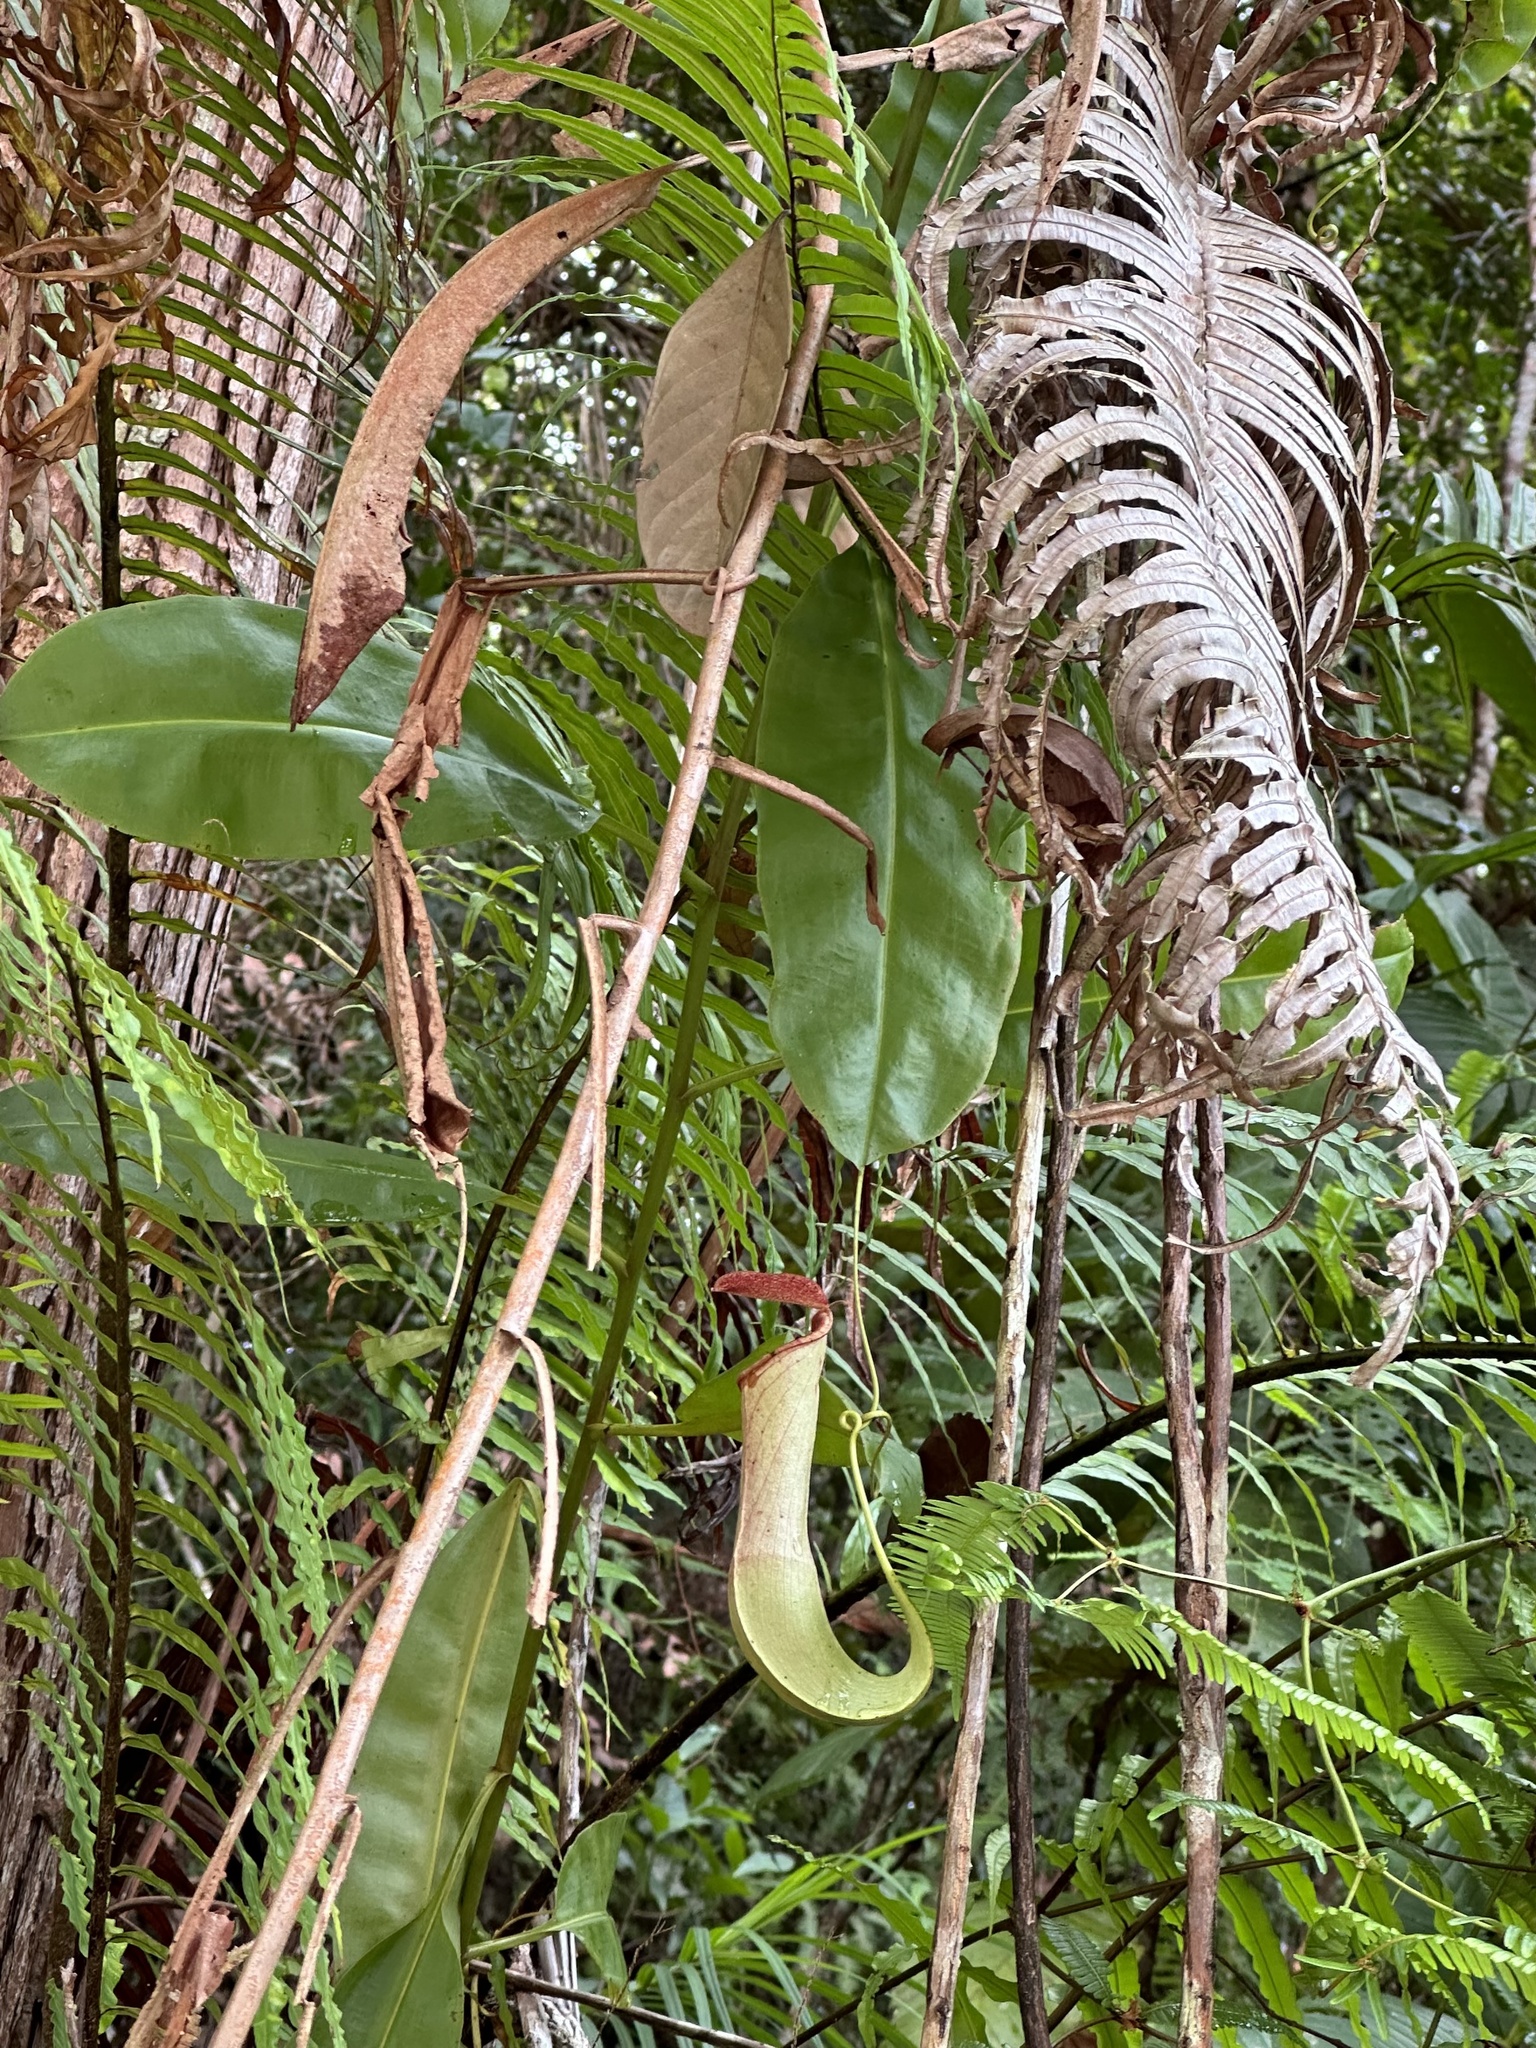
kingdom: Plantae
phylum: Tracheophyta
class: Magnoliopsida
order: Caryophyllales
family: Nepenthaceae
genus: Nepenthes
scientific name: Nepenthes mirabilis
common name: Tropical pitcherplant
